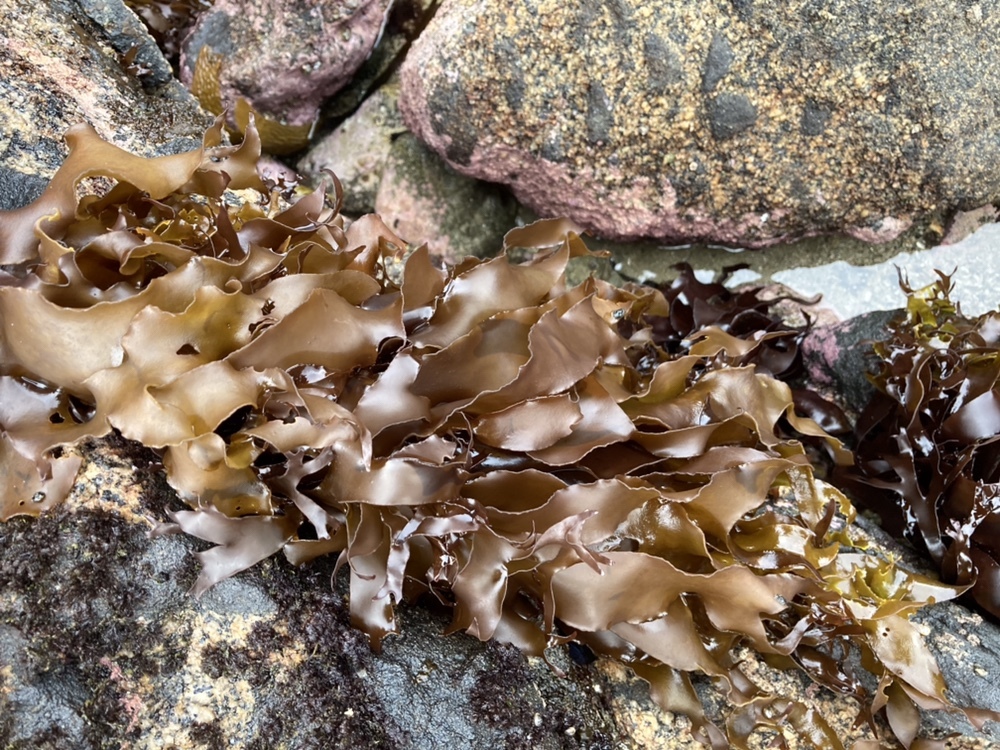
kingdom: Plantae
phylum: Rhodophyta
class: Florideophyceae
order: Halymeniales
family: Halymeniaceae
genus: Pachymenia
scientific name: Pachymenia dichotoma
